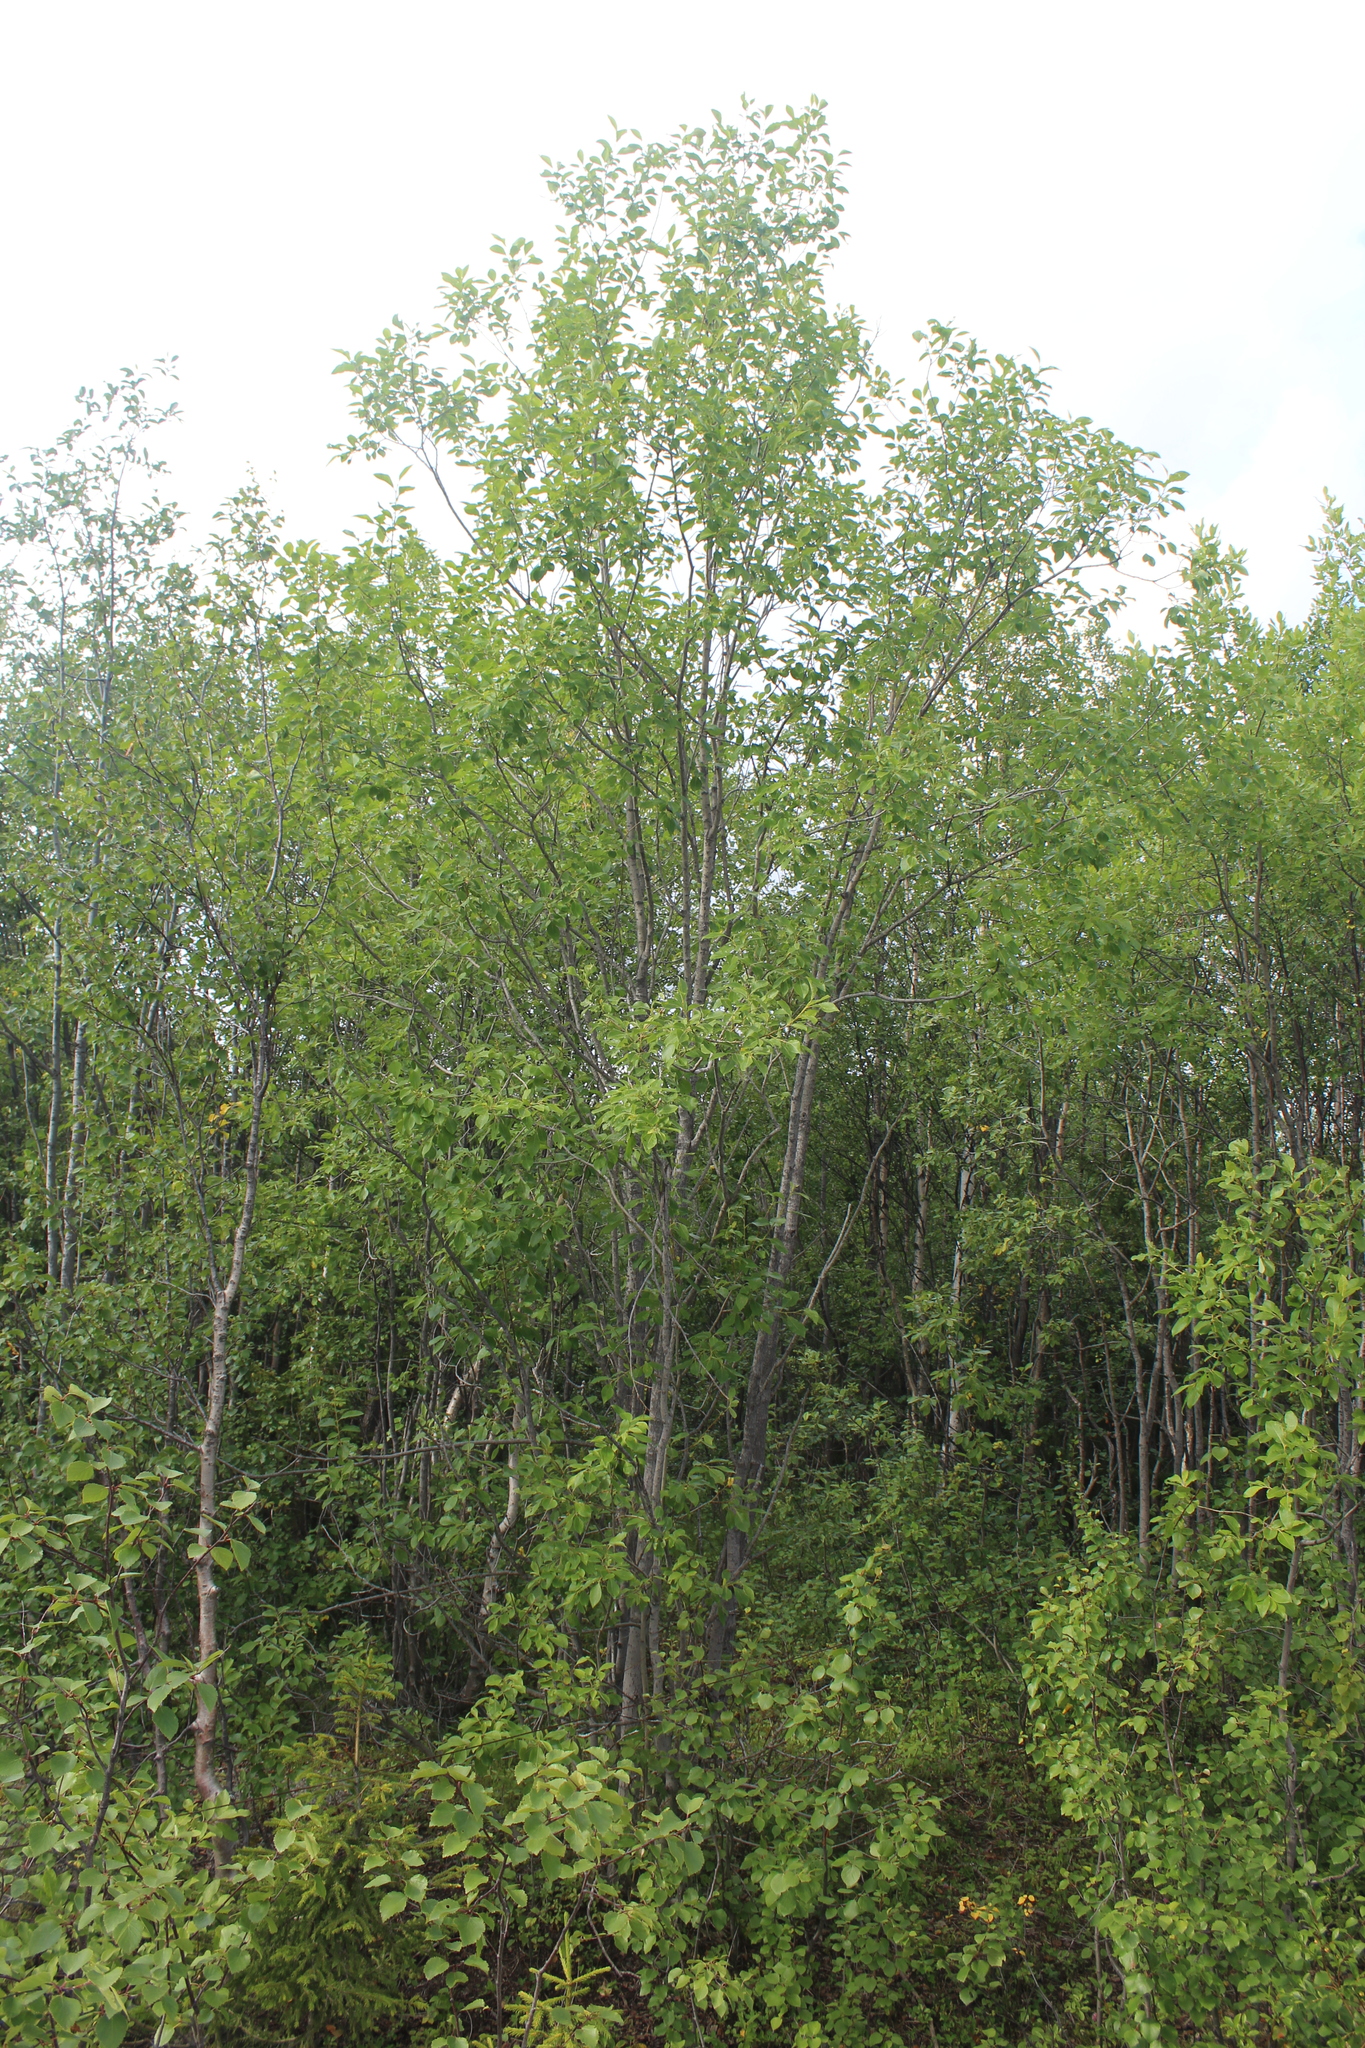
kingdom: Plantae
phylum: Tracheophyta
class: Magnoliopsida
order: Malpighiales
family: Salicaceae
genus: Salix
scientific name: Salix caprea
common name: Goat willow
